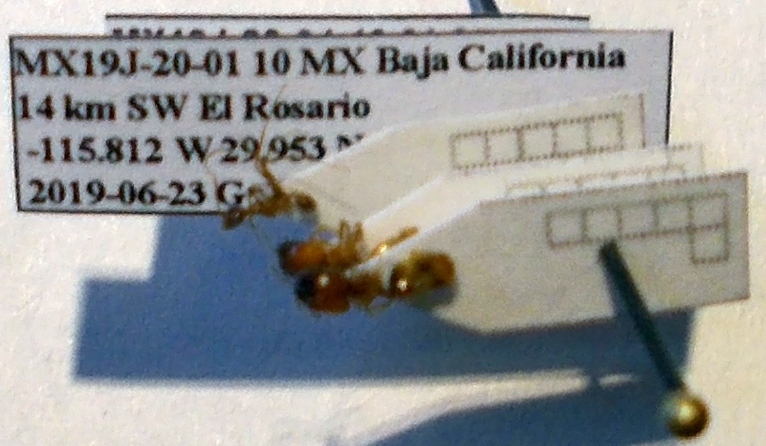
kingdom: Animalia
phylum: Arthropoda
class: Insecta
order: Hymenoptera
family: Formicidae
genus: Pheidole
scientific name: Pheidole bajaensis
